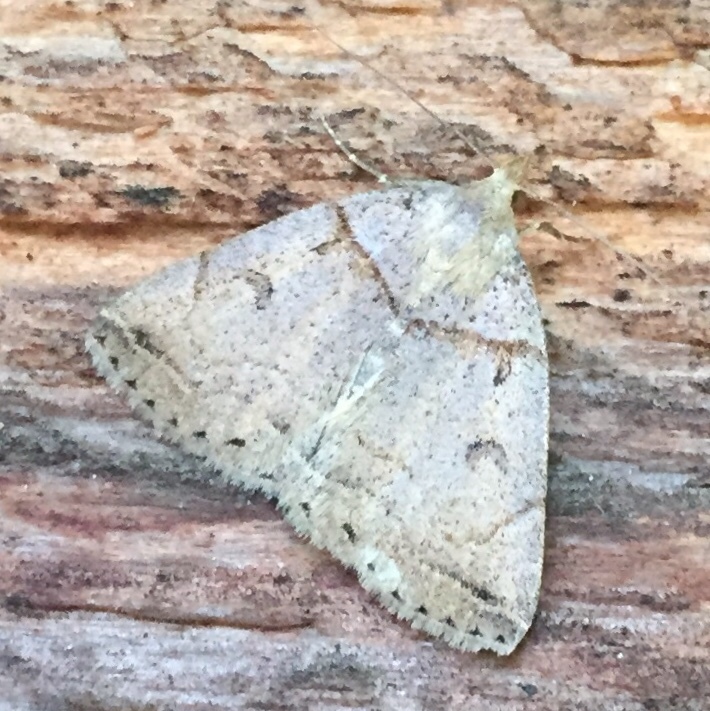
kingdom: Animalia
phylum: Arthropoda
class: Insecta
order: Lepidoptera
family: Erebidae
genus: Zanclognatha
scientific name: Zanclognatha laevigata
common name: Variable fan-foot
